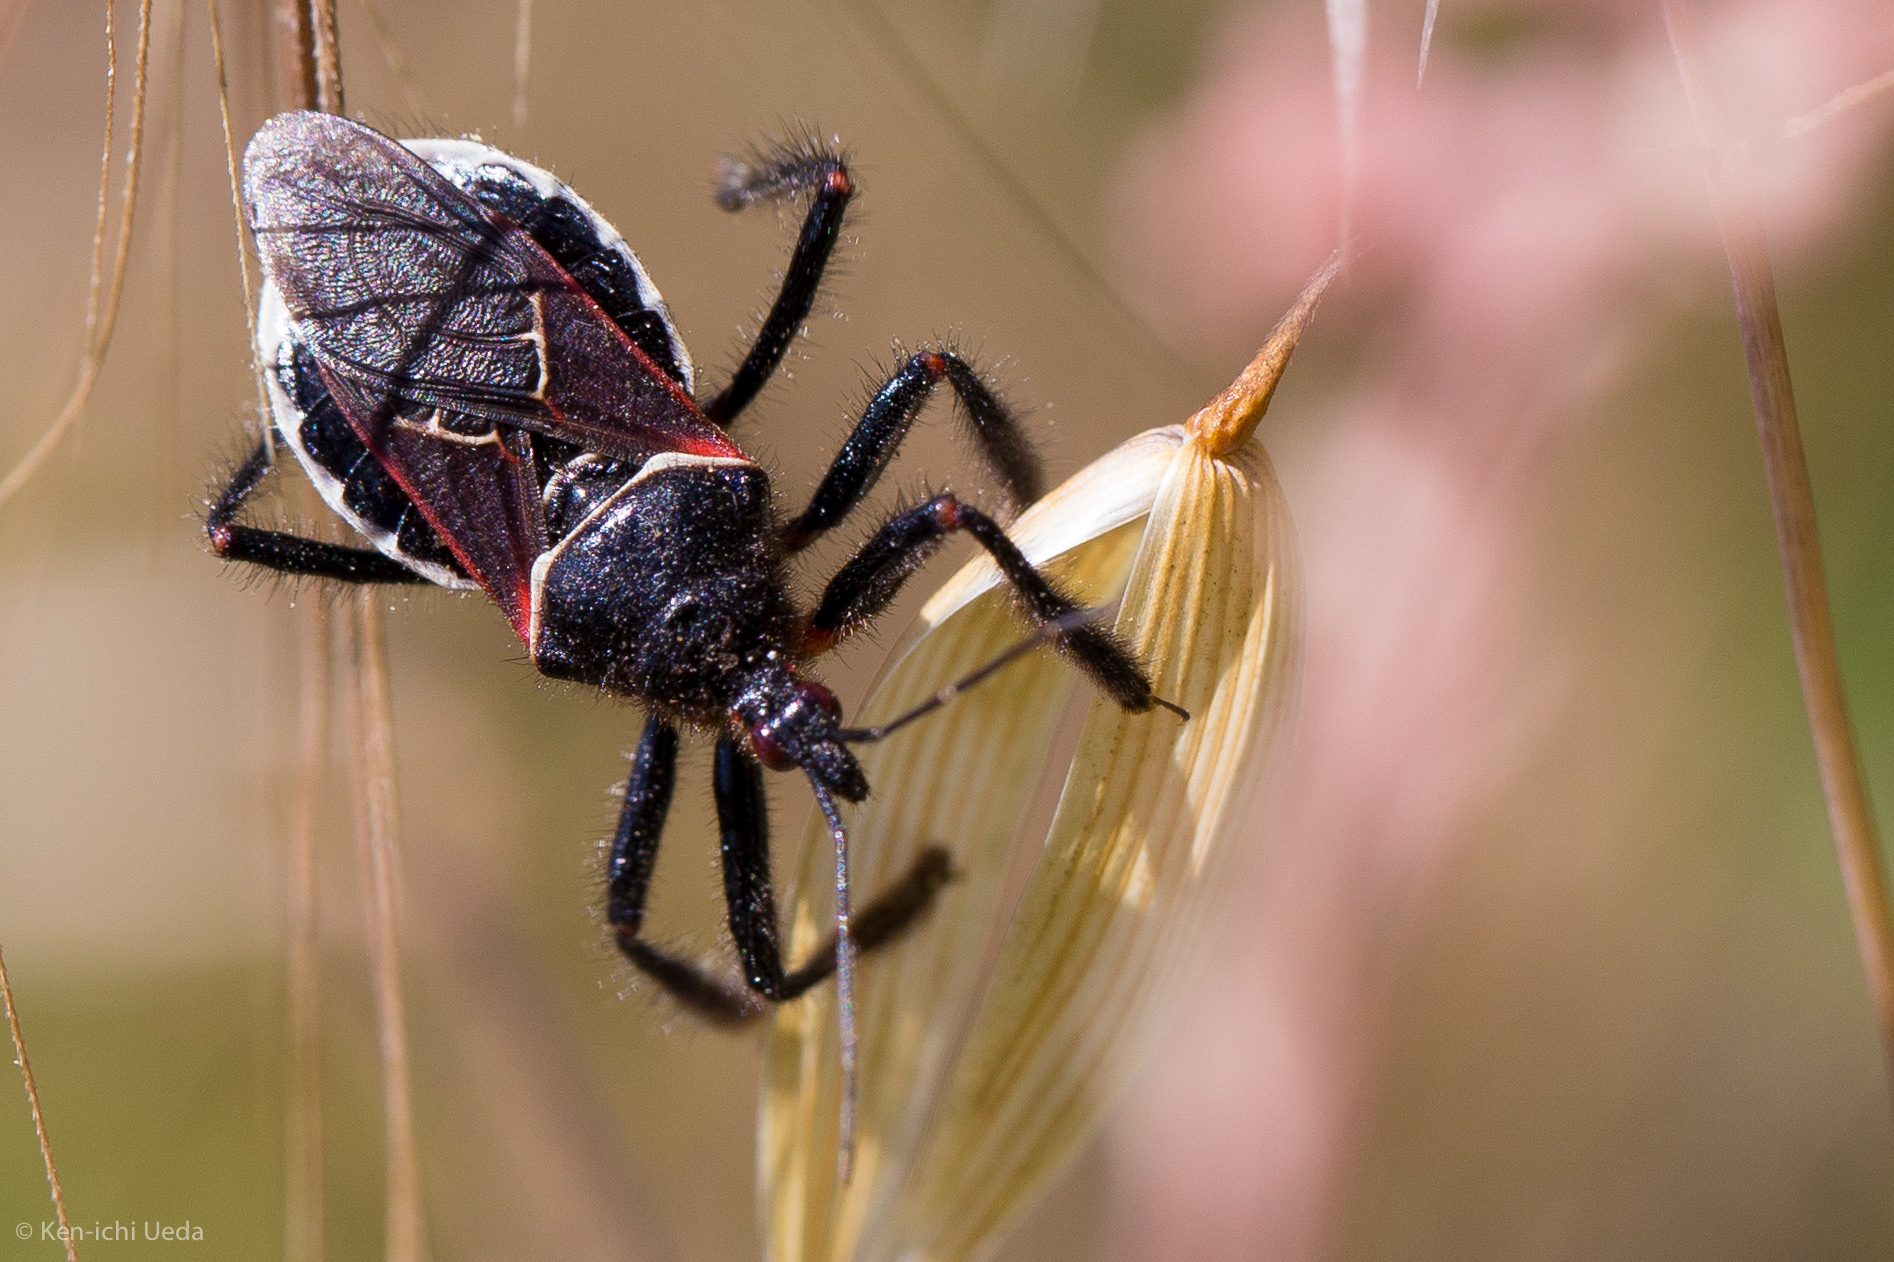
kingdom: Animalia
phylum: Arthropoda
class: Insecta
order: Hemiptera
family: Reduviidae
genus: Apiomerus
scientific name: Apiomerus californicus
